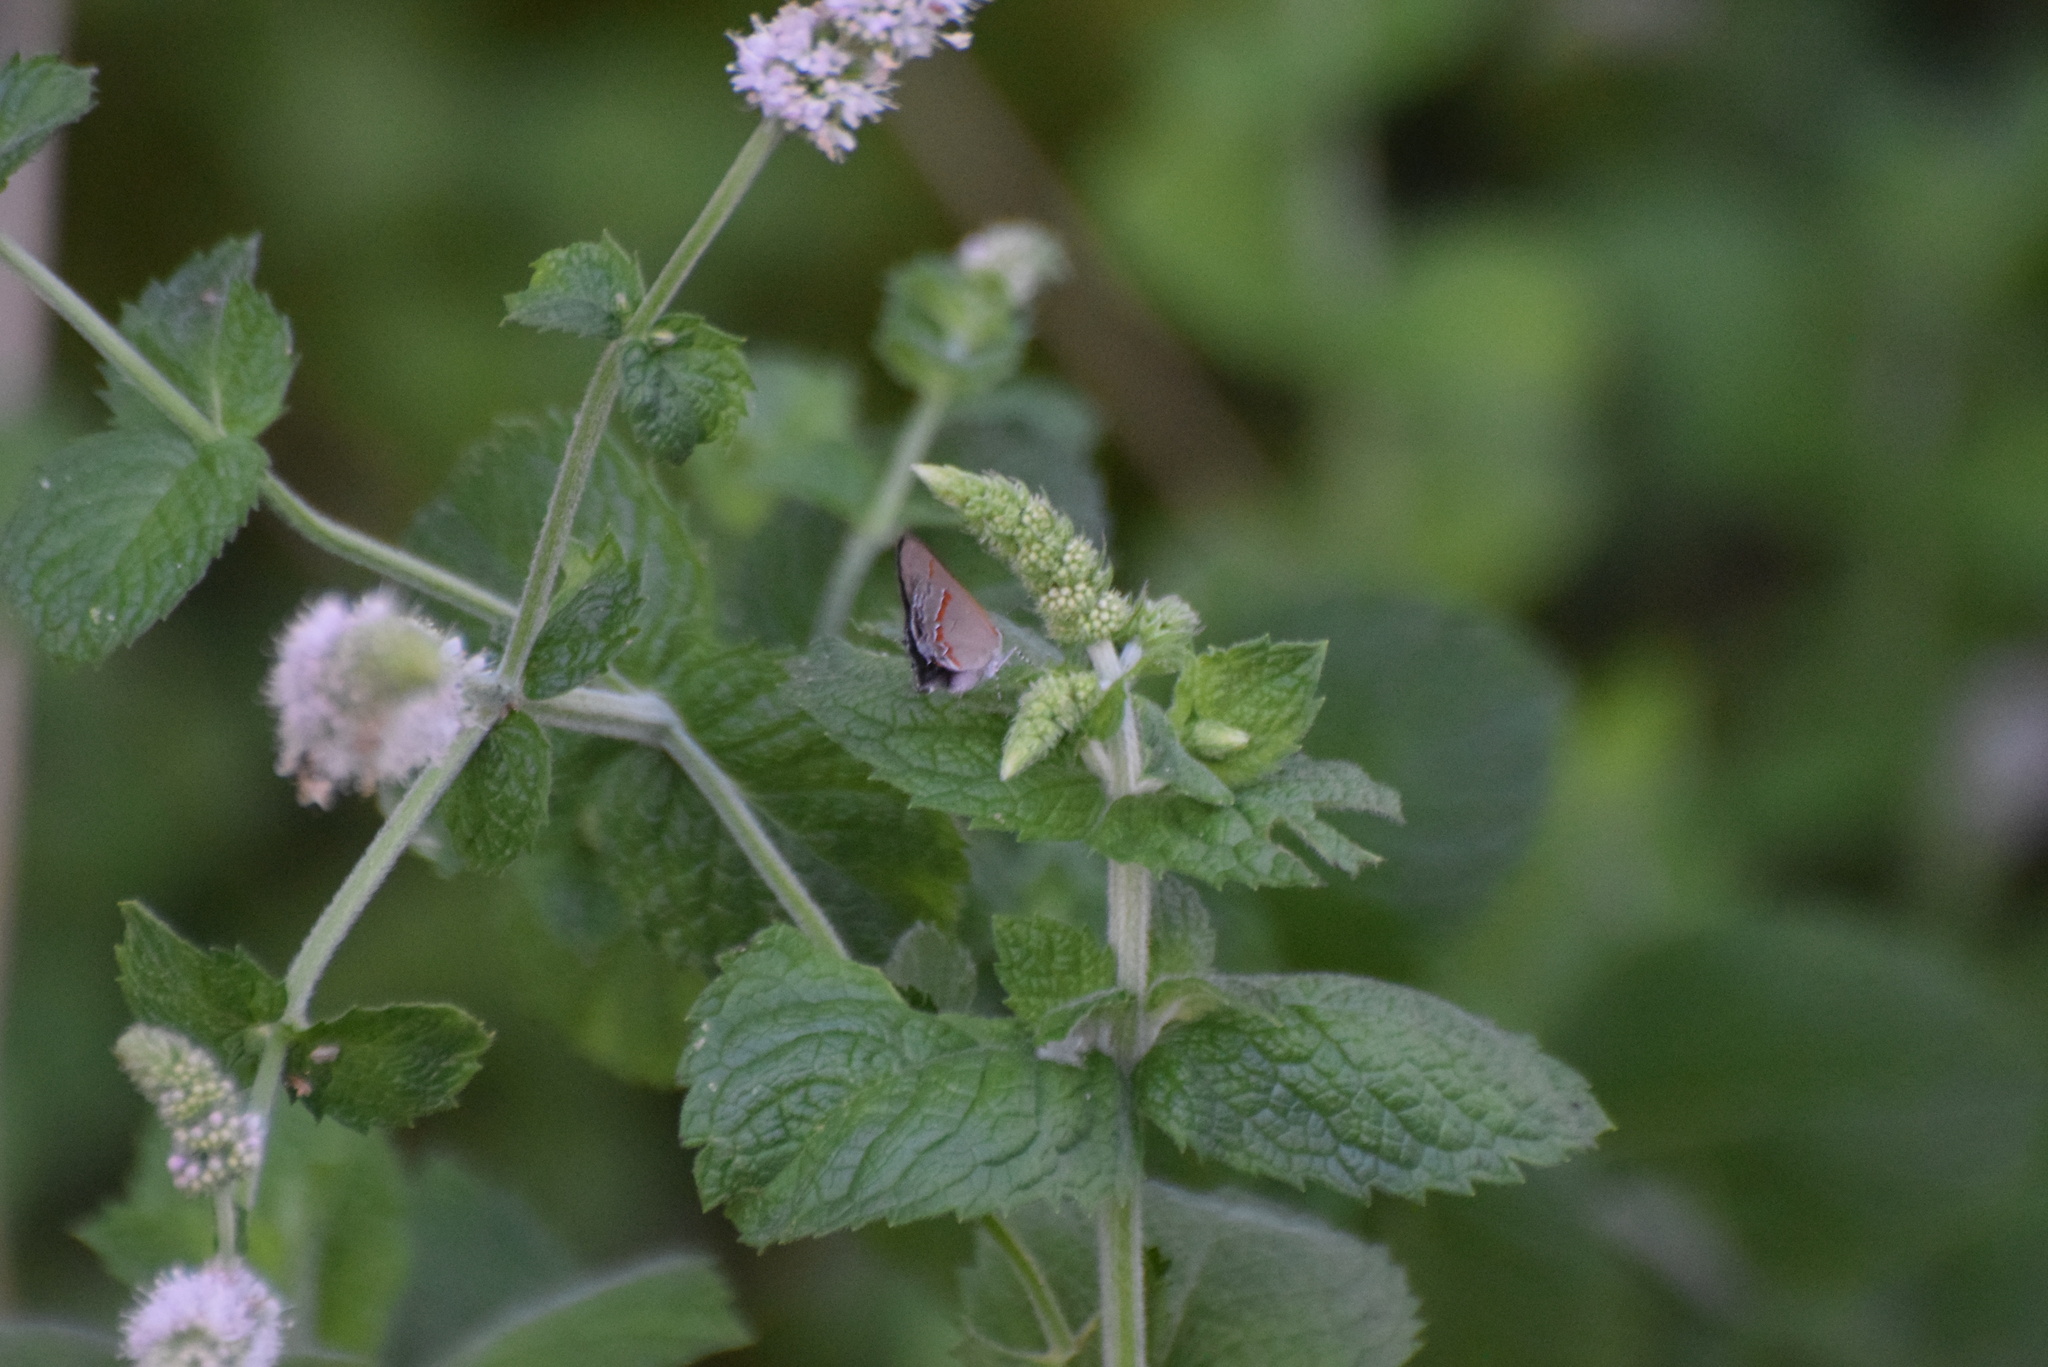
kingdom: Animalia
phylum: Arthropoda
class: Insecta
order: Lepidoptera
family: Lycaenidae
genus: Calycopis
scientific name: Calycopis cecrops
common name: Red-banded hairstreak
